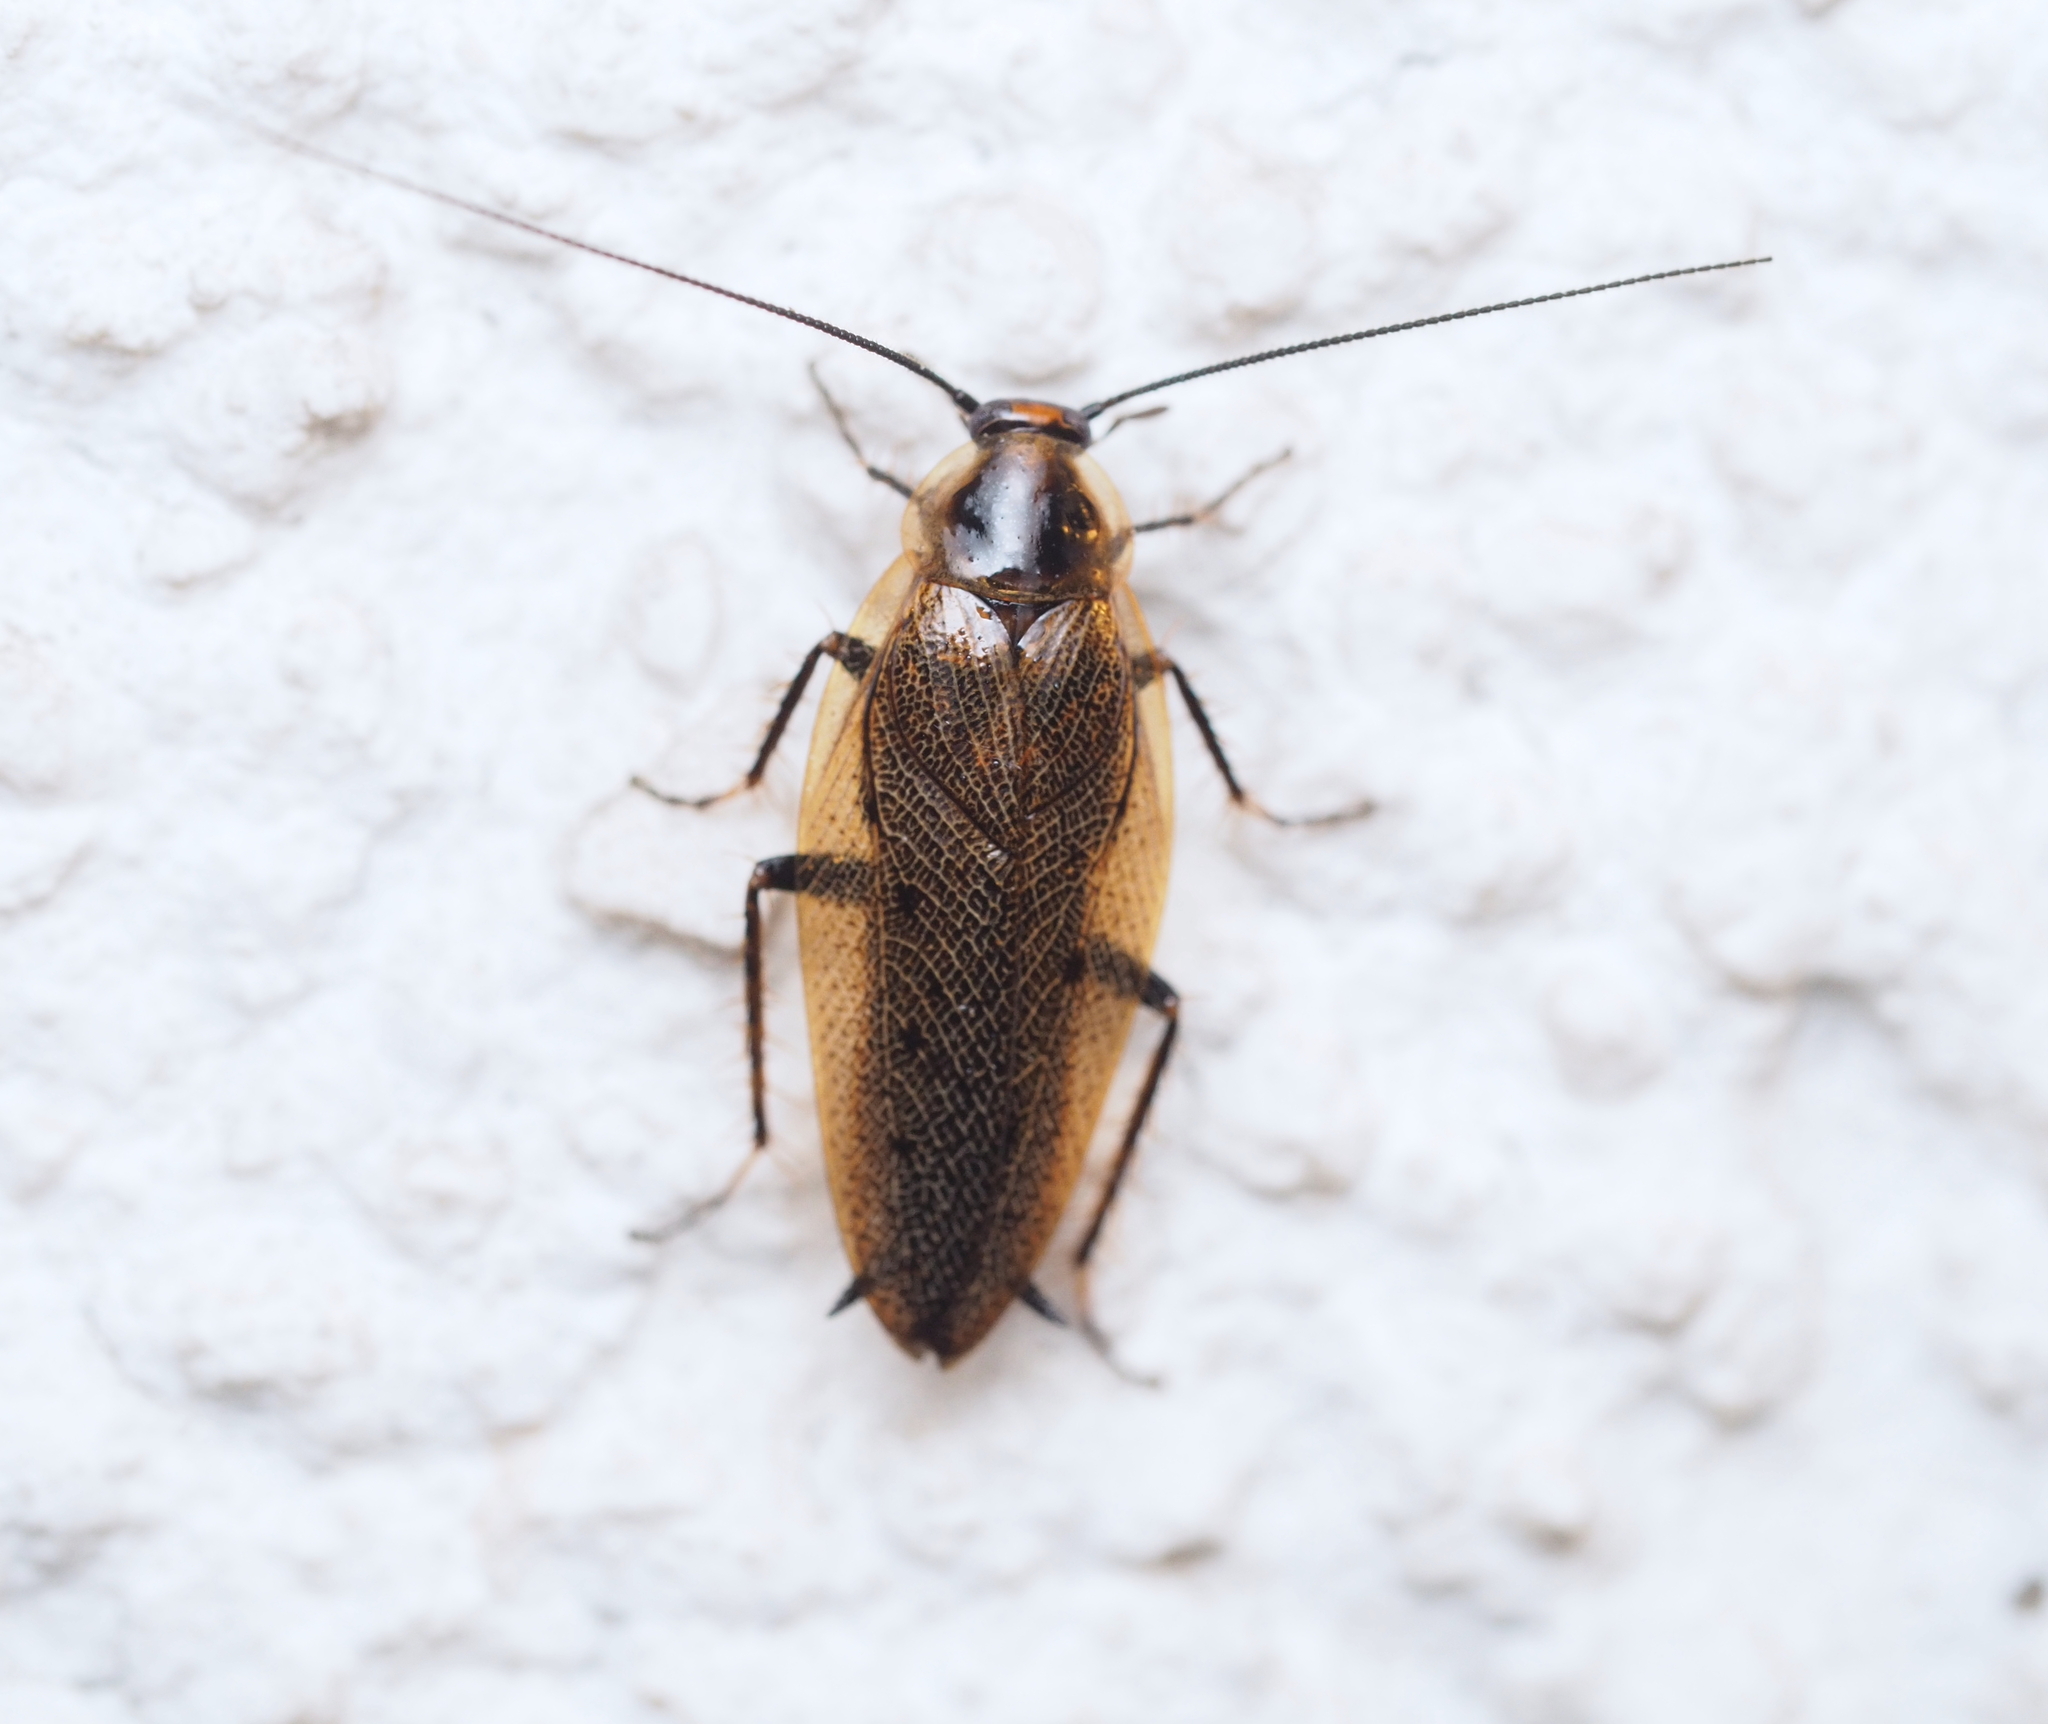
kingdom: Animalia
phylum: Arthropoda
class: Insecta
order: Blattodea
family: Ectobiidae
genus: Ectobius
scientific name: Ectobius lapponicus
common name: Dusky cockroach
